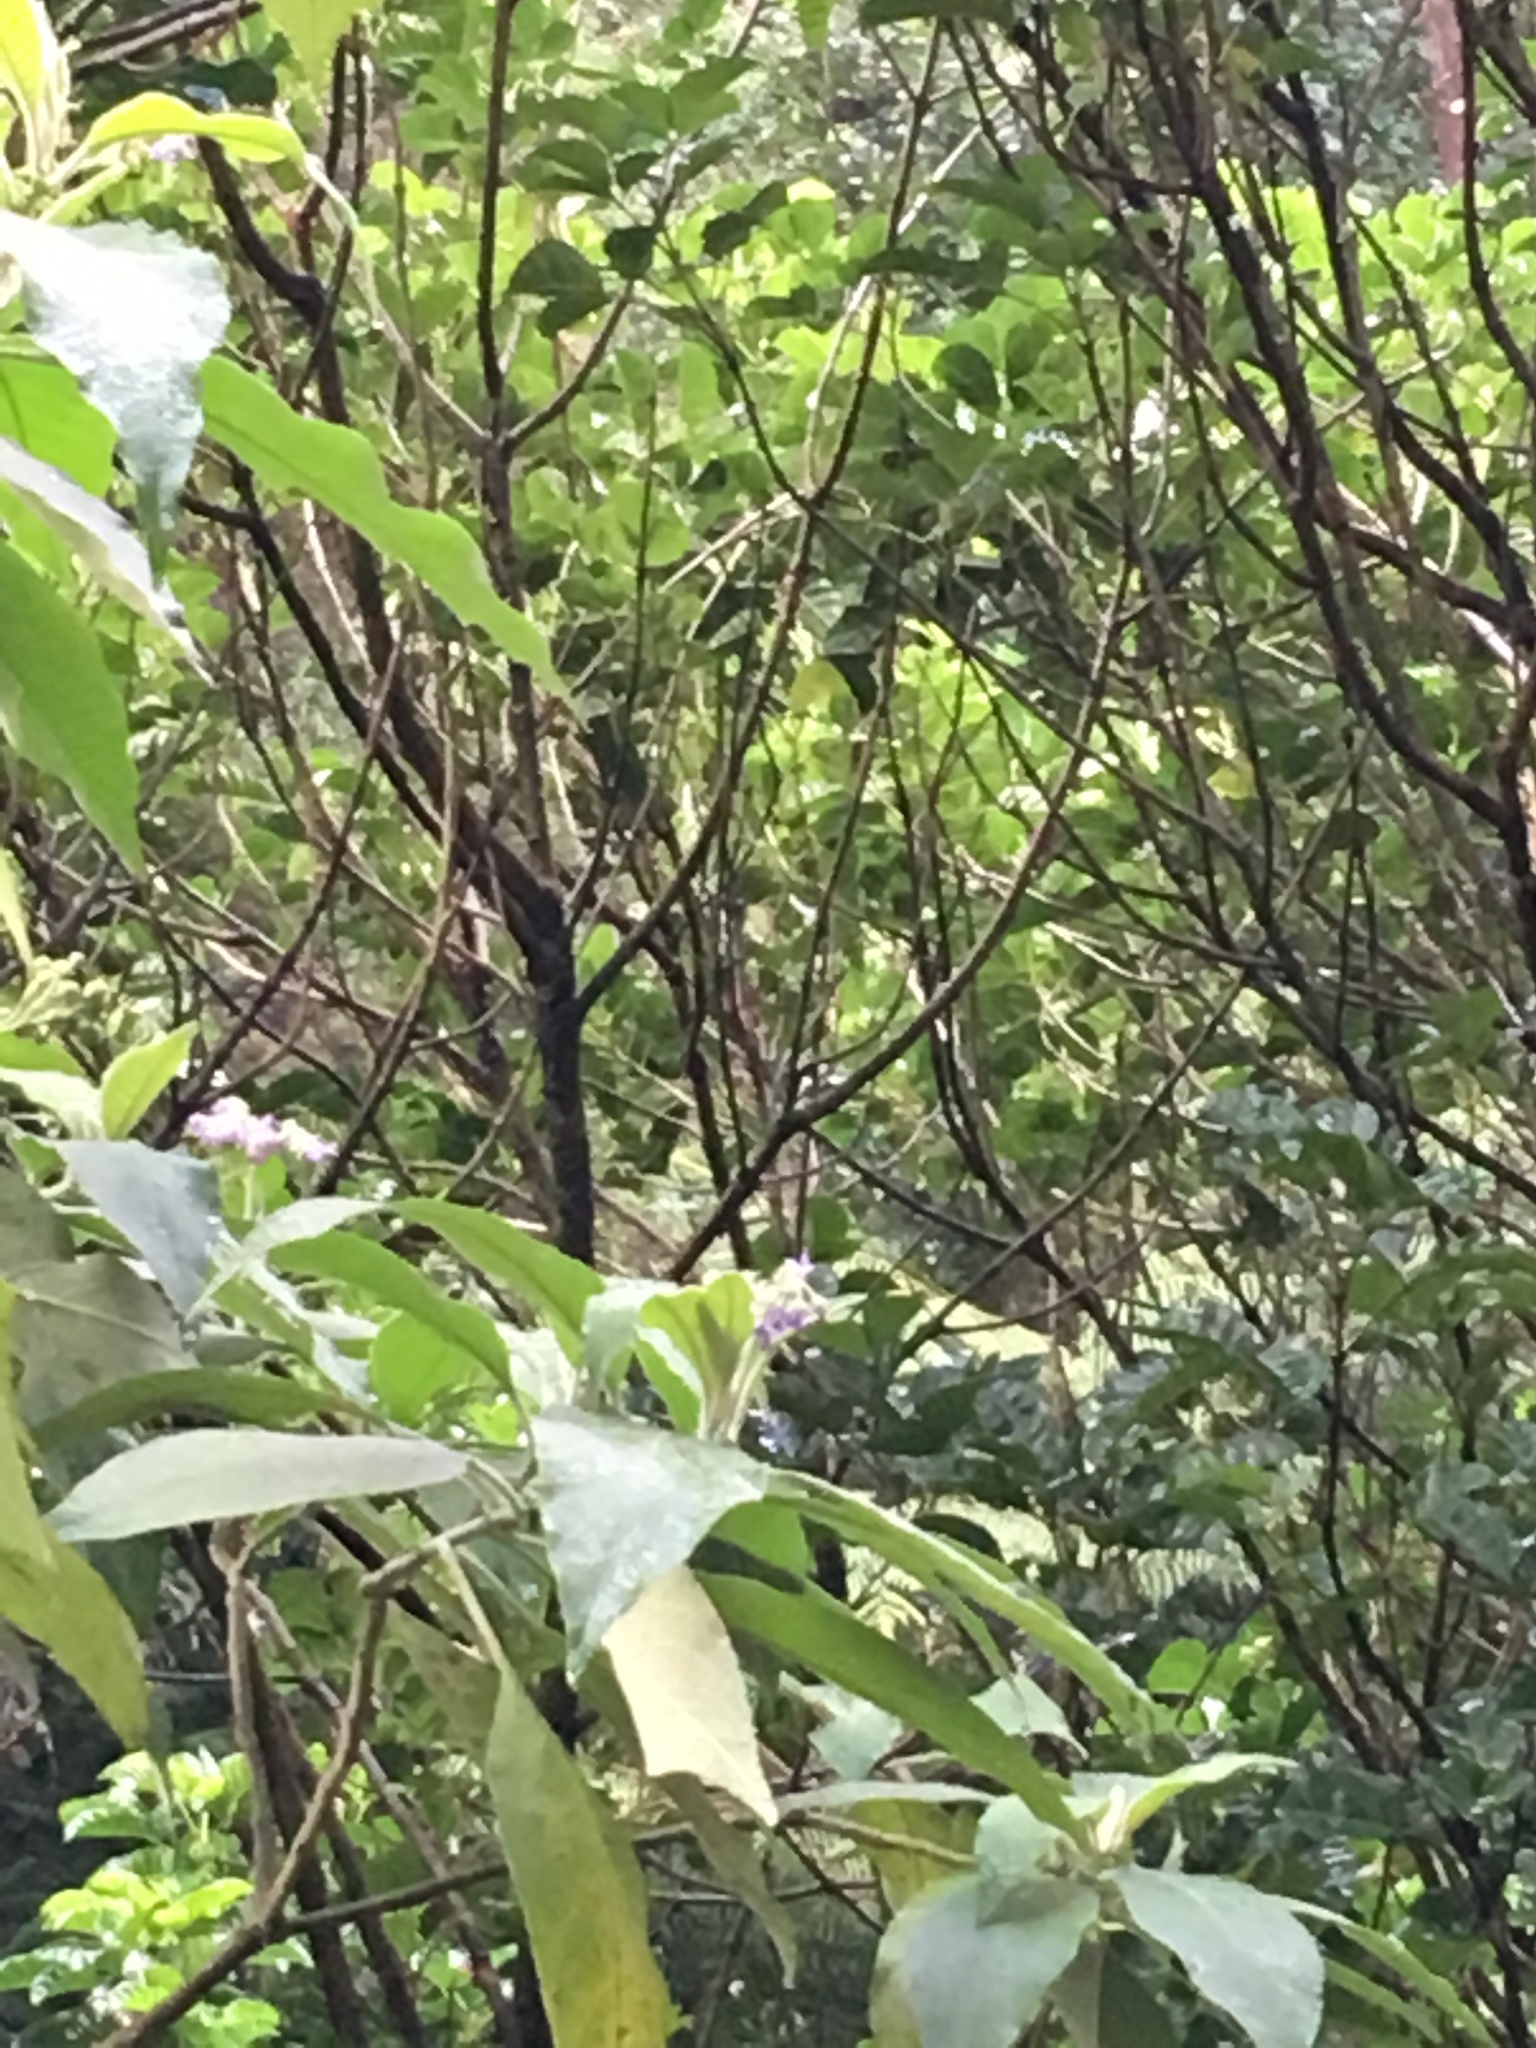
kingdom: Plantae
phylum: Tracheophyta
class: Magnoliopsida
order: Solanales
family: Solanaceae
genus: Solanum
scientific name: Solanum mauritianum
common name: Earleaf nightshade
